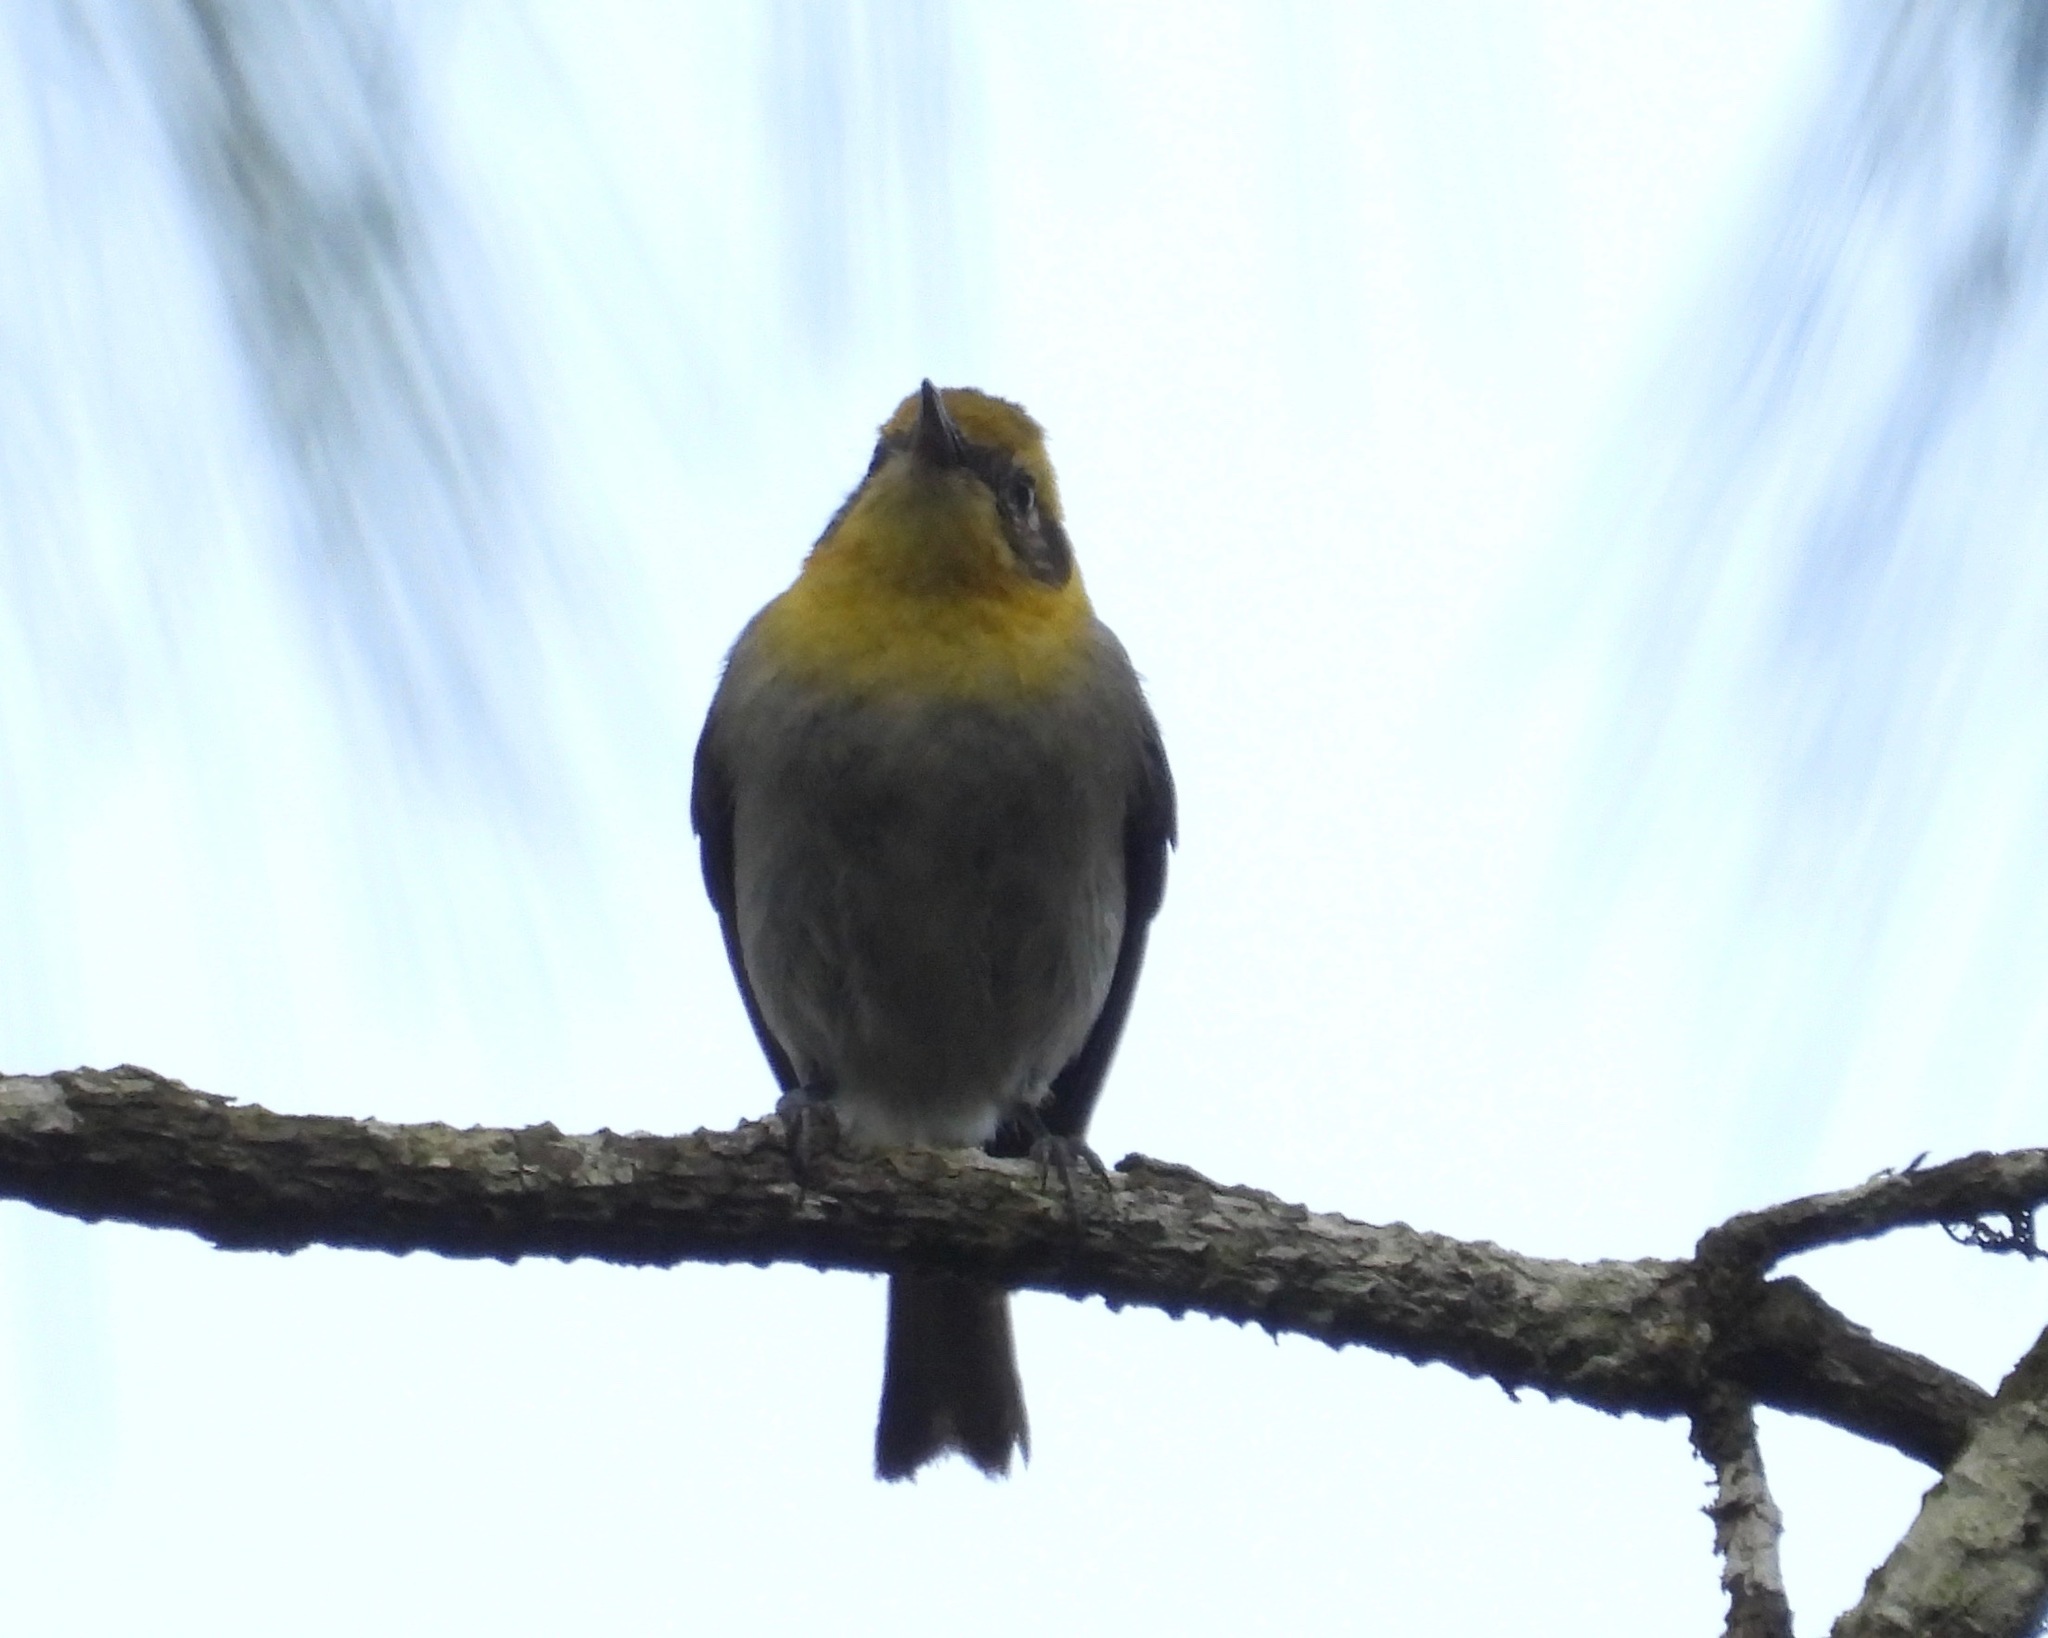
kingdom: Animalia
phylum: Chordata
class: Aves
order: Passeriformes
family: Peucedramidae
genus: Peucedramus
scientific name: Peucedramus taeniatus
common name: Olive warbler
